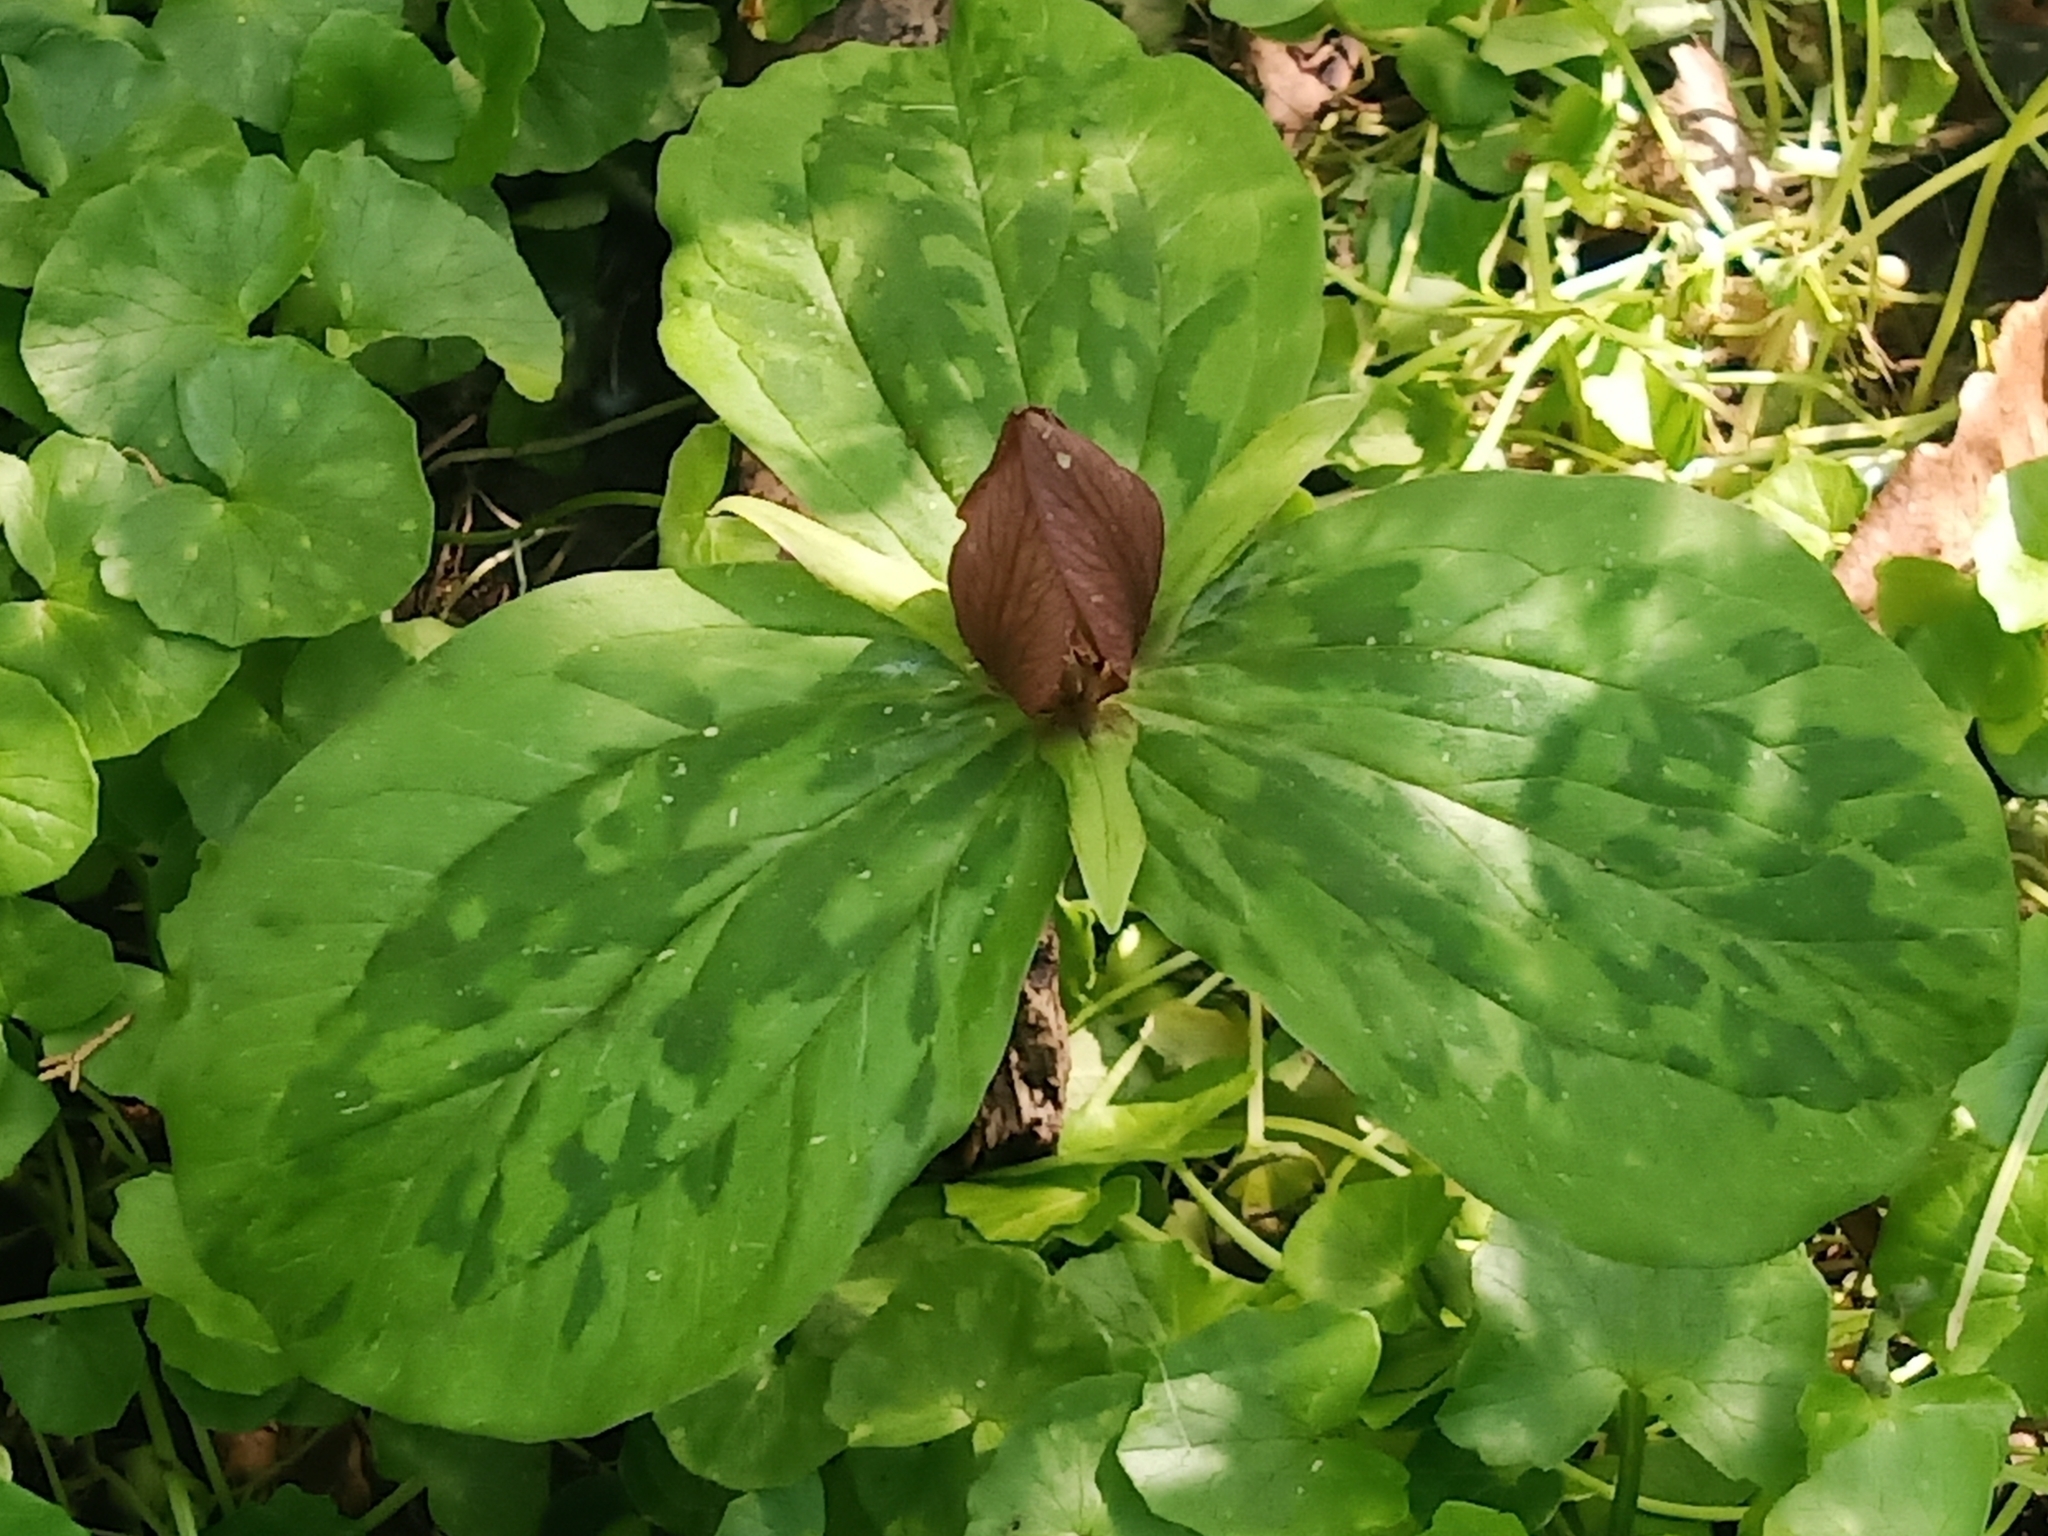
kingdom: Plantae
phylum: Tracheophyta
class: Liliopsida
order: Liliales
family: Melanthiaceae
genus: Trillium
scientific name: Trillium sessile
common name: Sessile trillium
